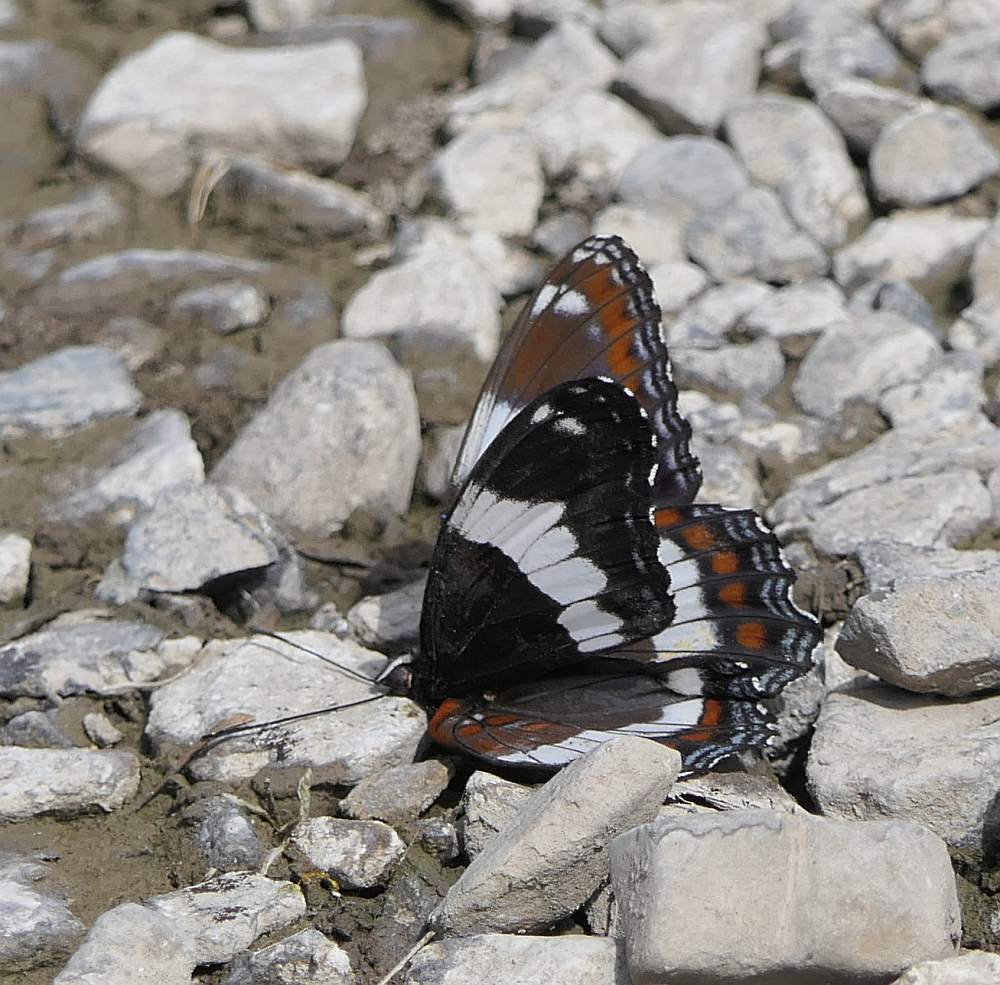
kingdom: Animalia
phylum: Arthropoda
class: Insecta
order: Lepidoptera
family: Nymphalidae
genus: Limenitis
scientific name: Limenitis arthemis
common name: Red-spotted admiral
